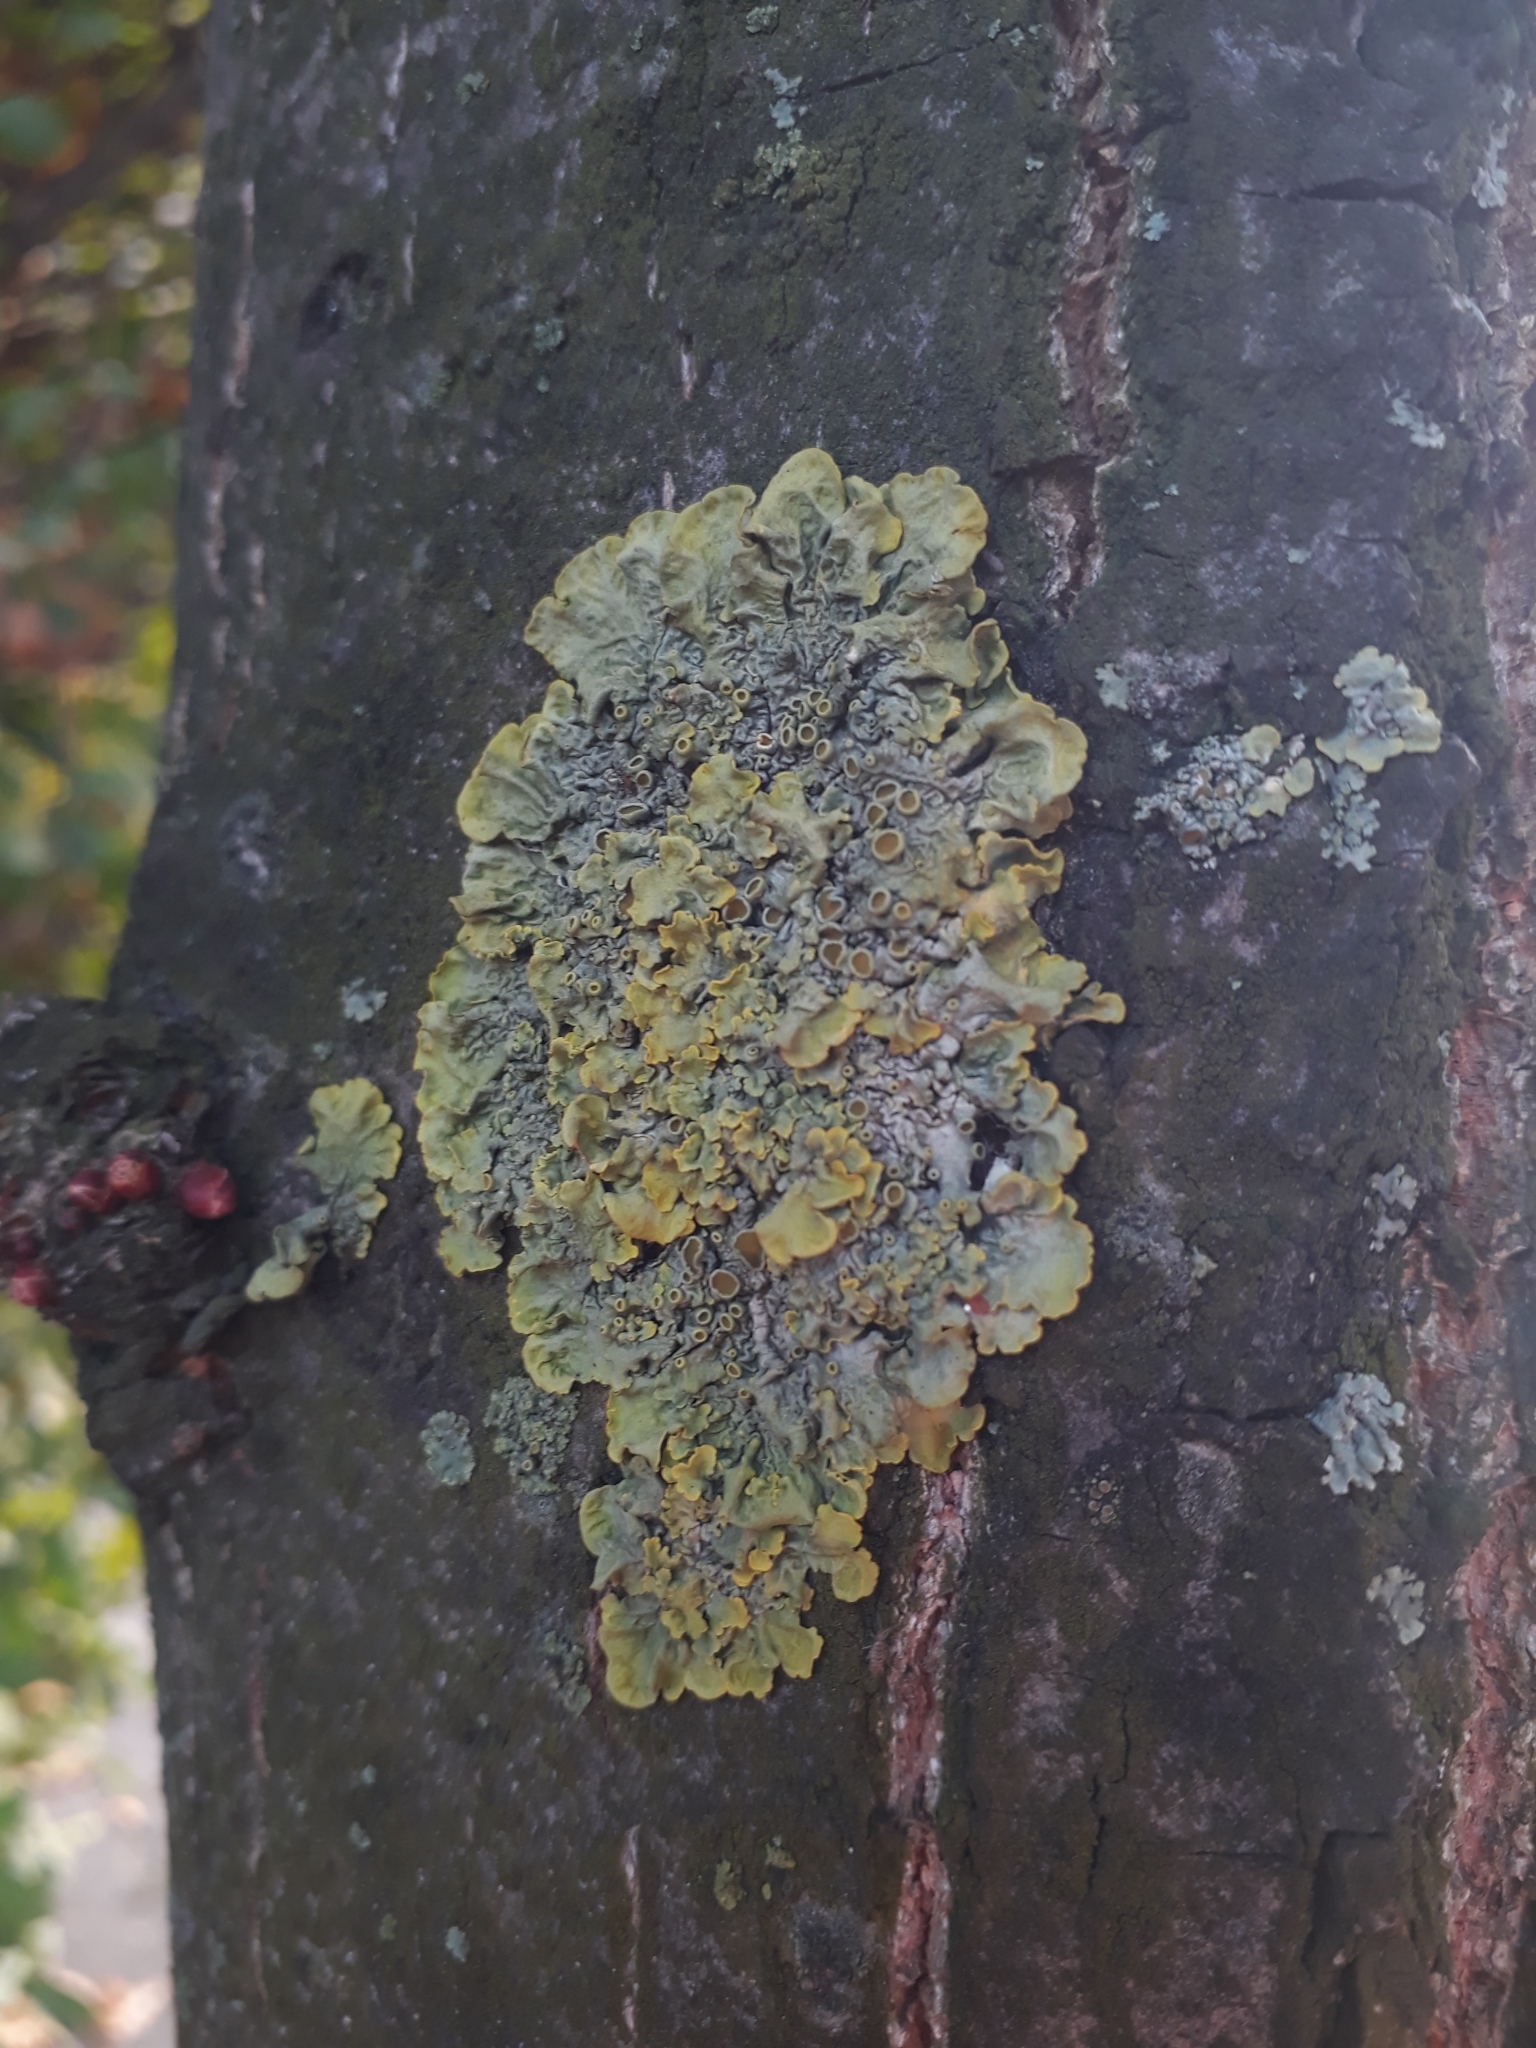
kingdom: Fungi
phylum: Ascomycota
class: Lecanoromycetes
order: Teloschistales
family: Teloschistaceae
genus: Xanthoria
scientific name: Xanthoria parietina
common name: Common orange lichen
